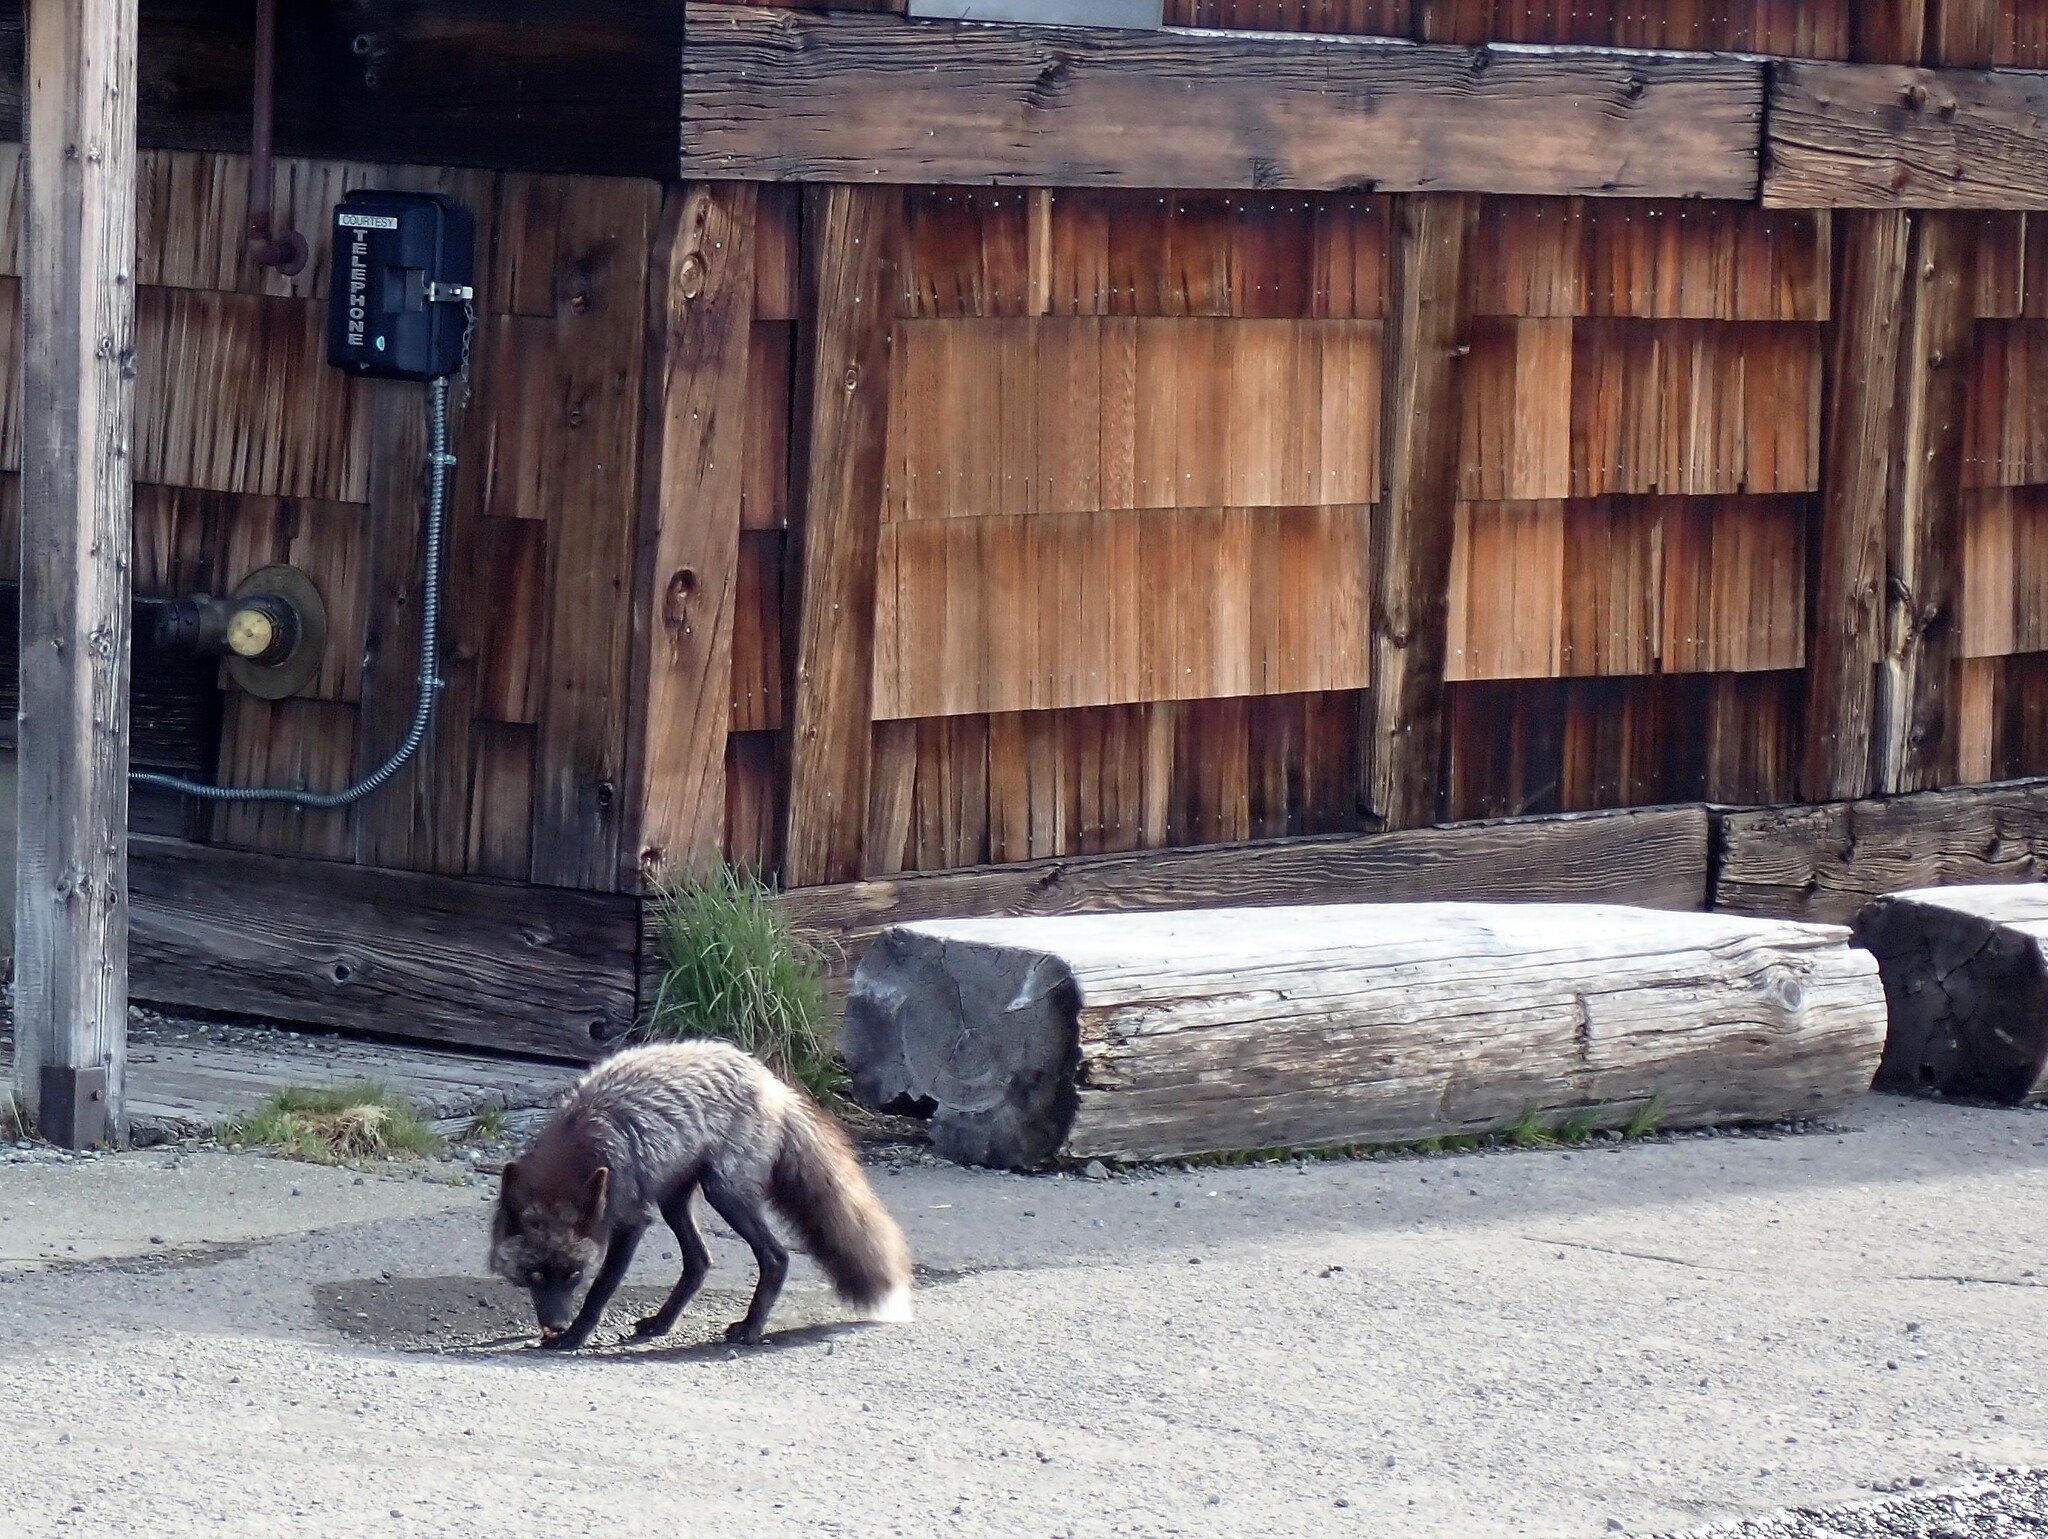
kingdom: Animalia
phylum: Chordata
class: Mammalia
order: Carnivora
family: Canidae
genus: Vulpes
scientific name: Vulpes vulpes
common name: Red fox
